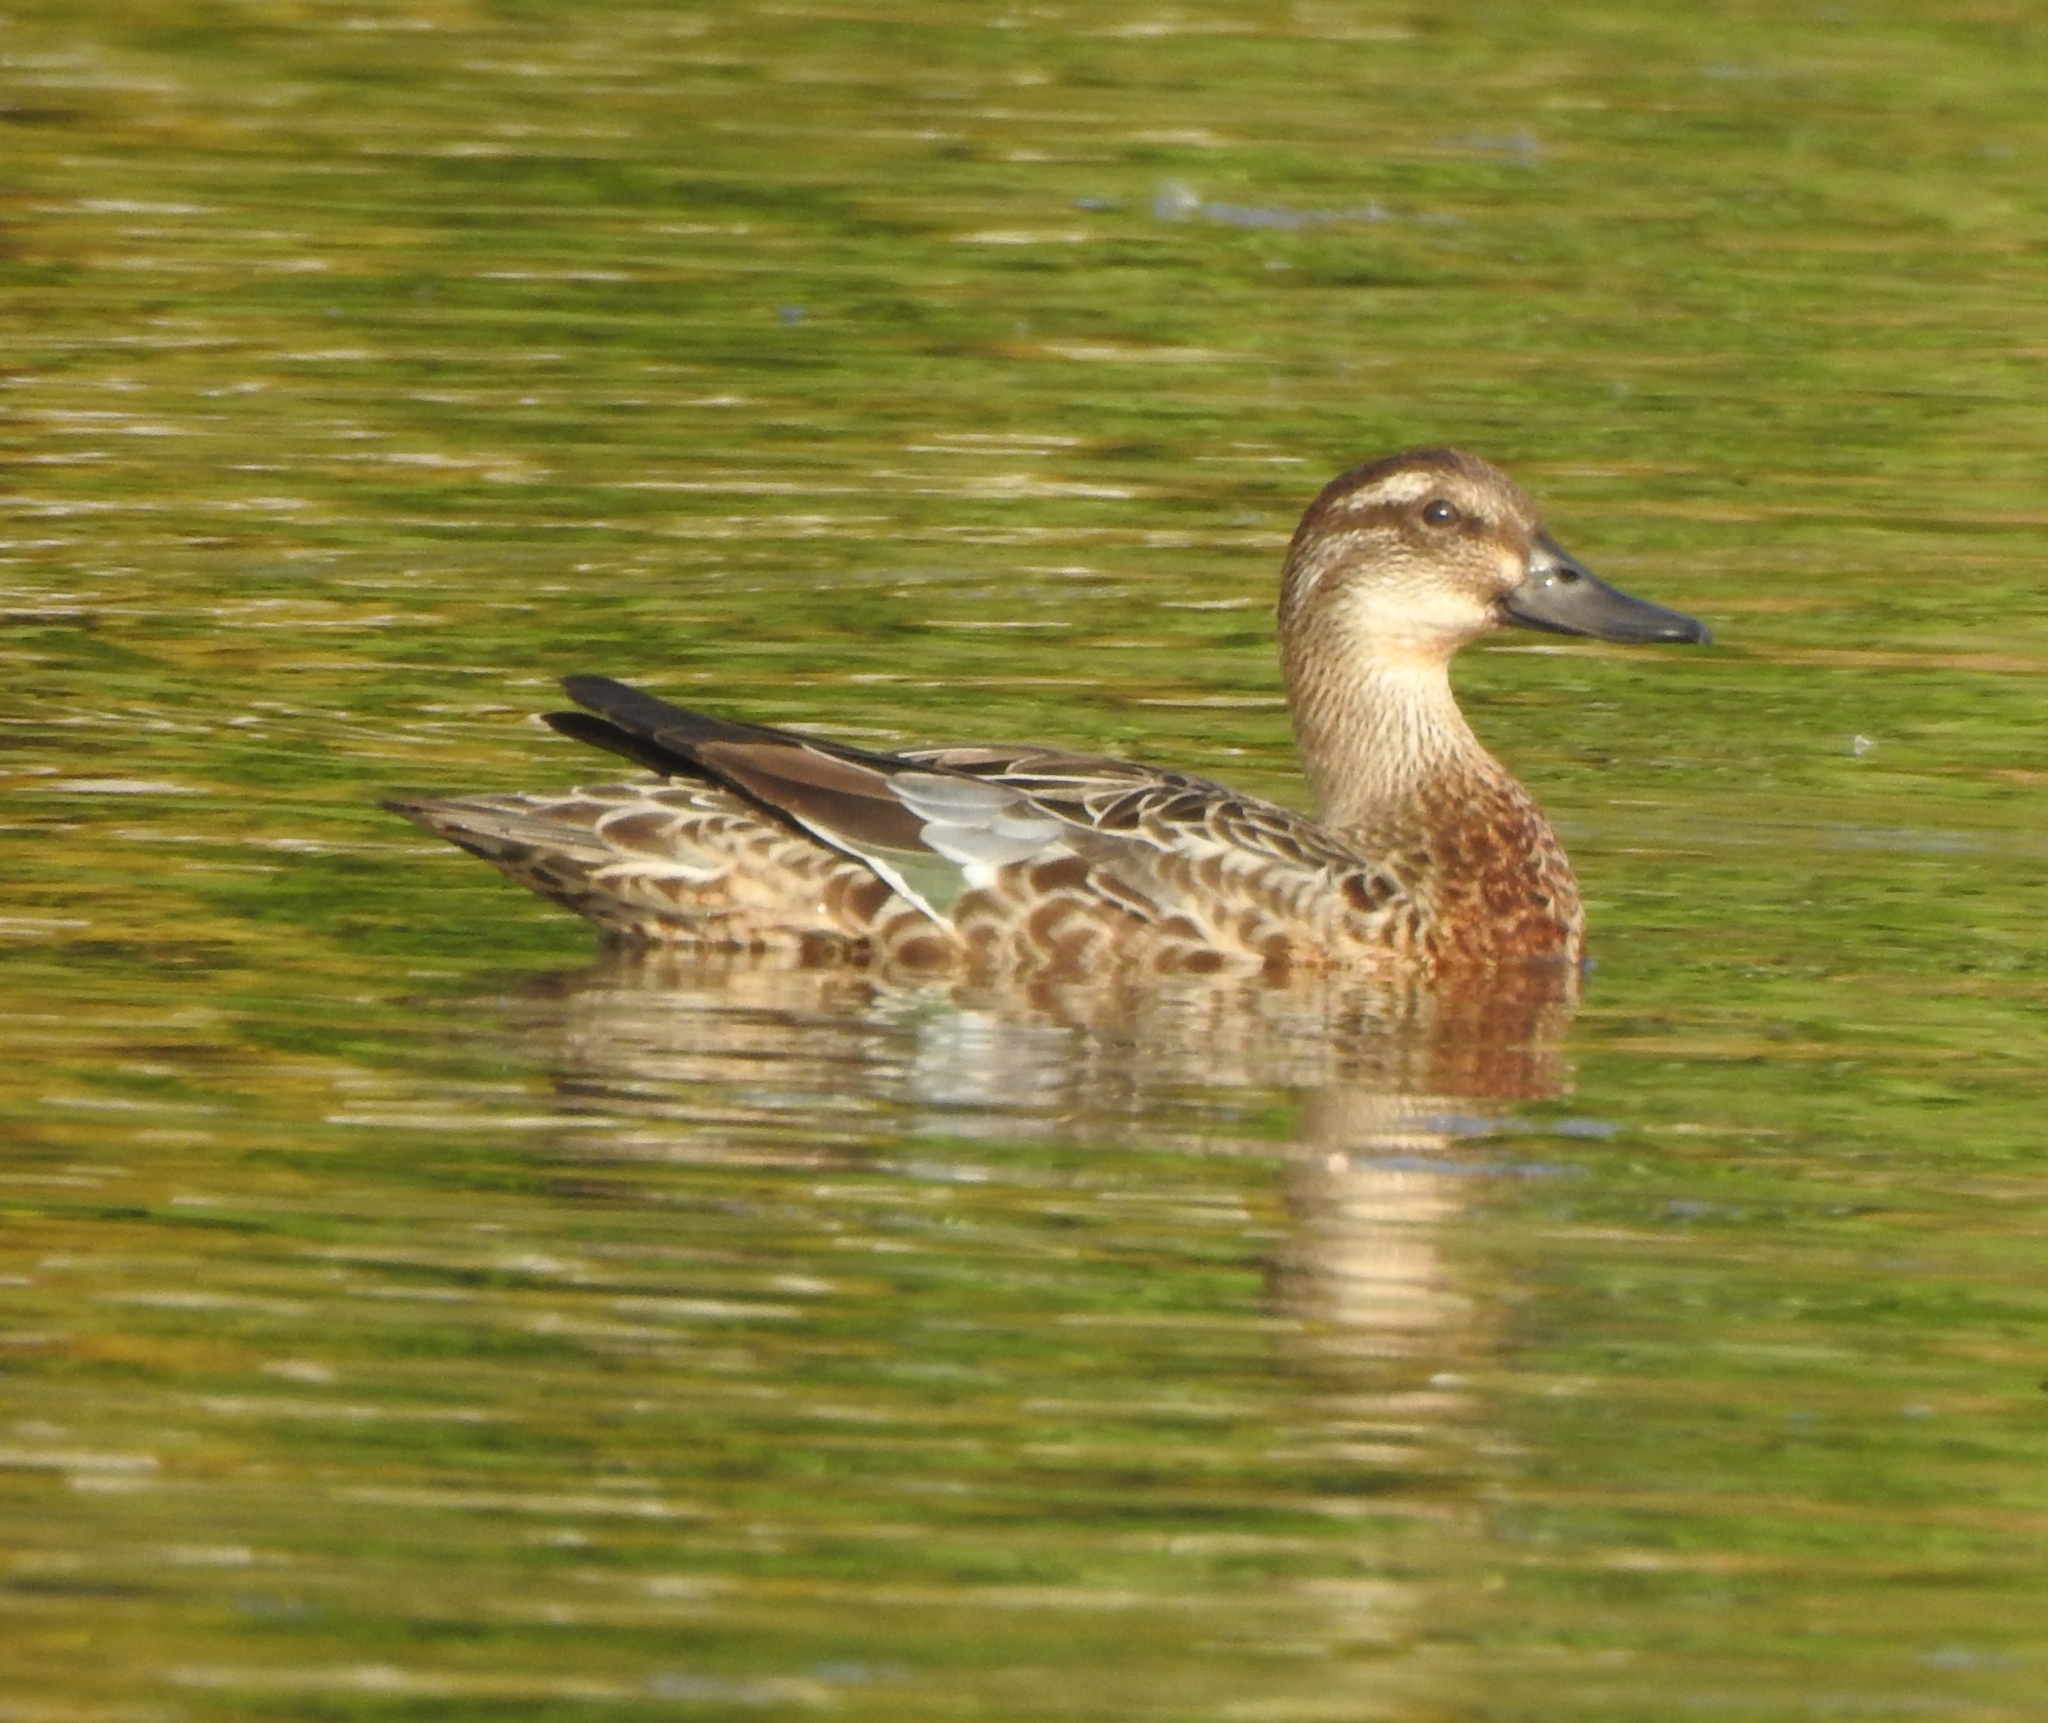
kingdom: Animalia
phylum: Chordata
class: Aves
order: Anseriformes
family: Anatidae
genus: Spatula
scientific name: Spatula querquedula
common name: Garganey
